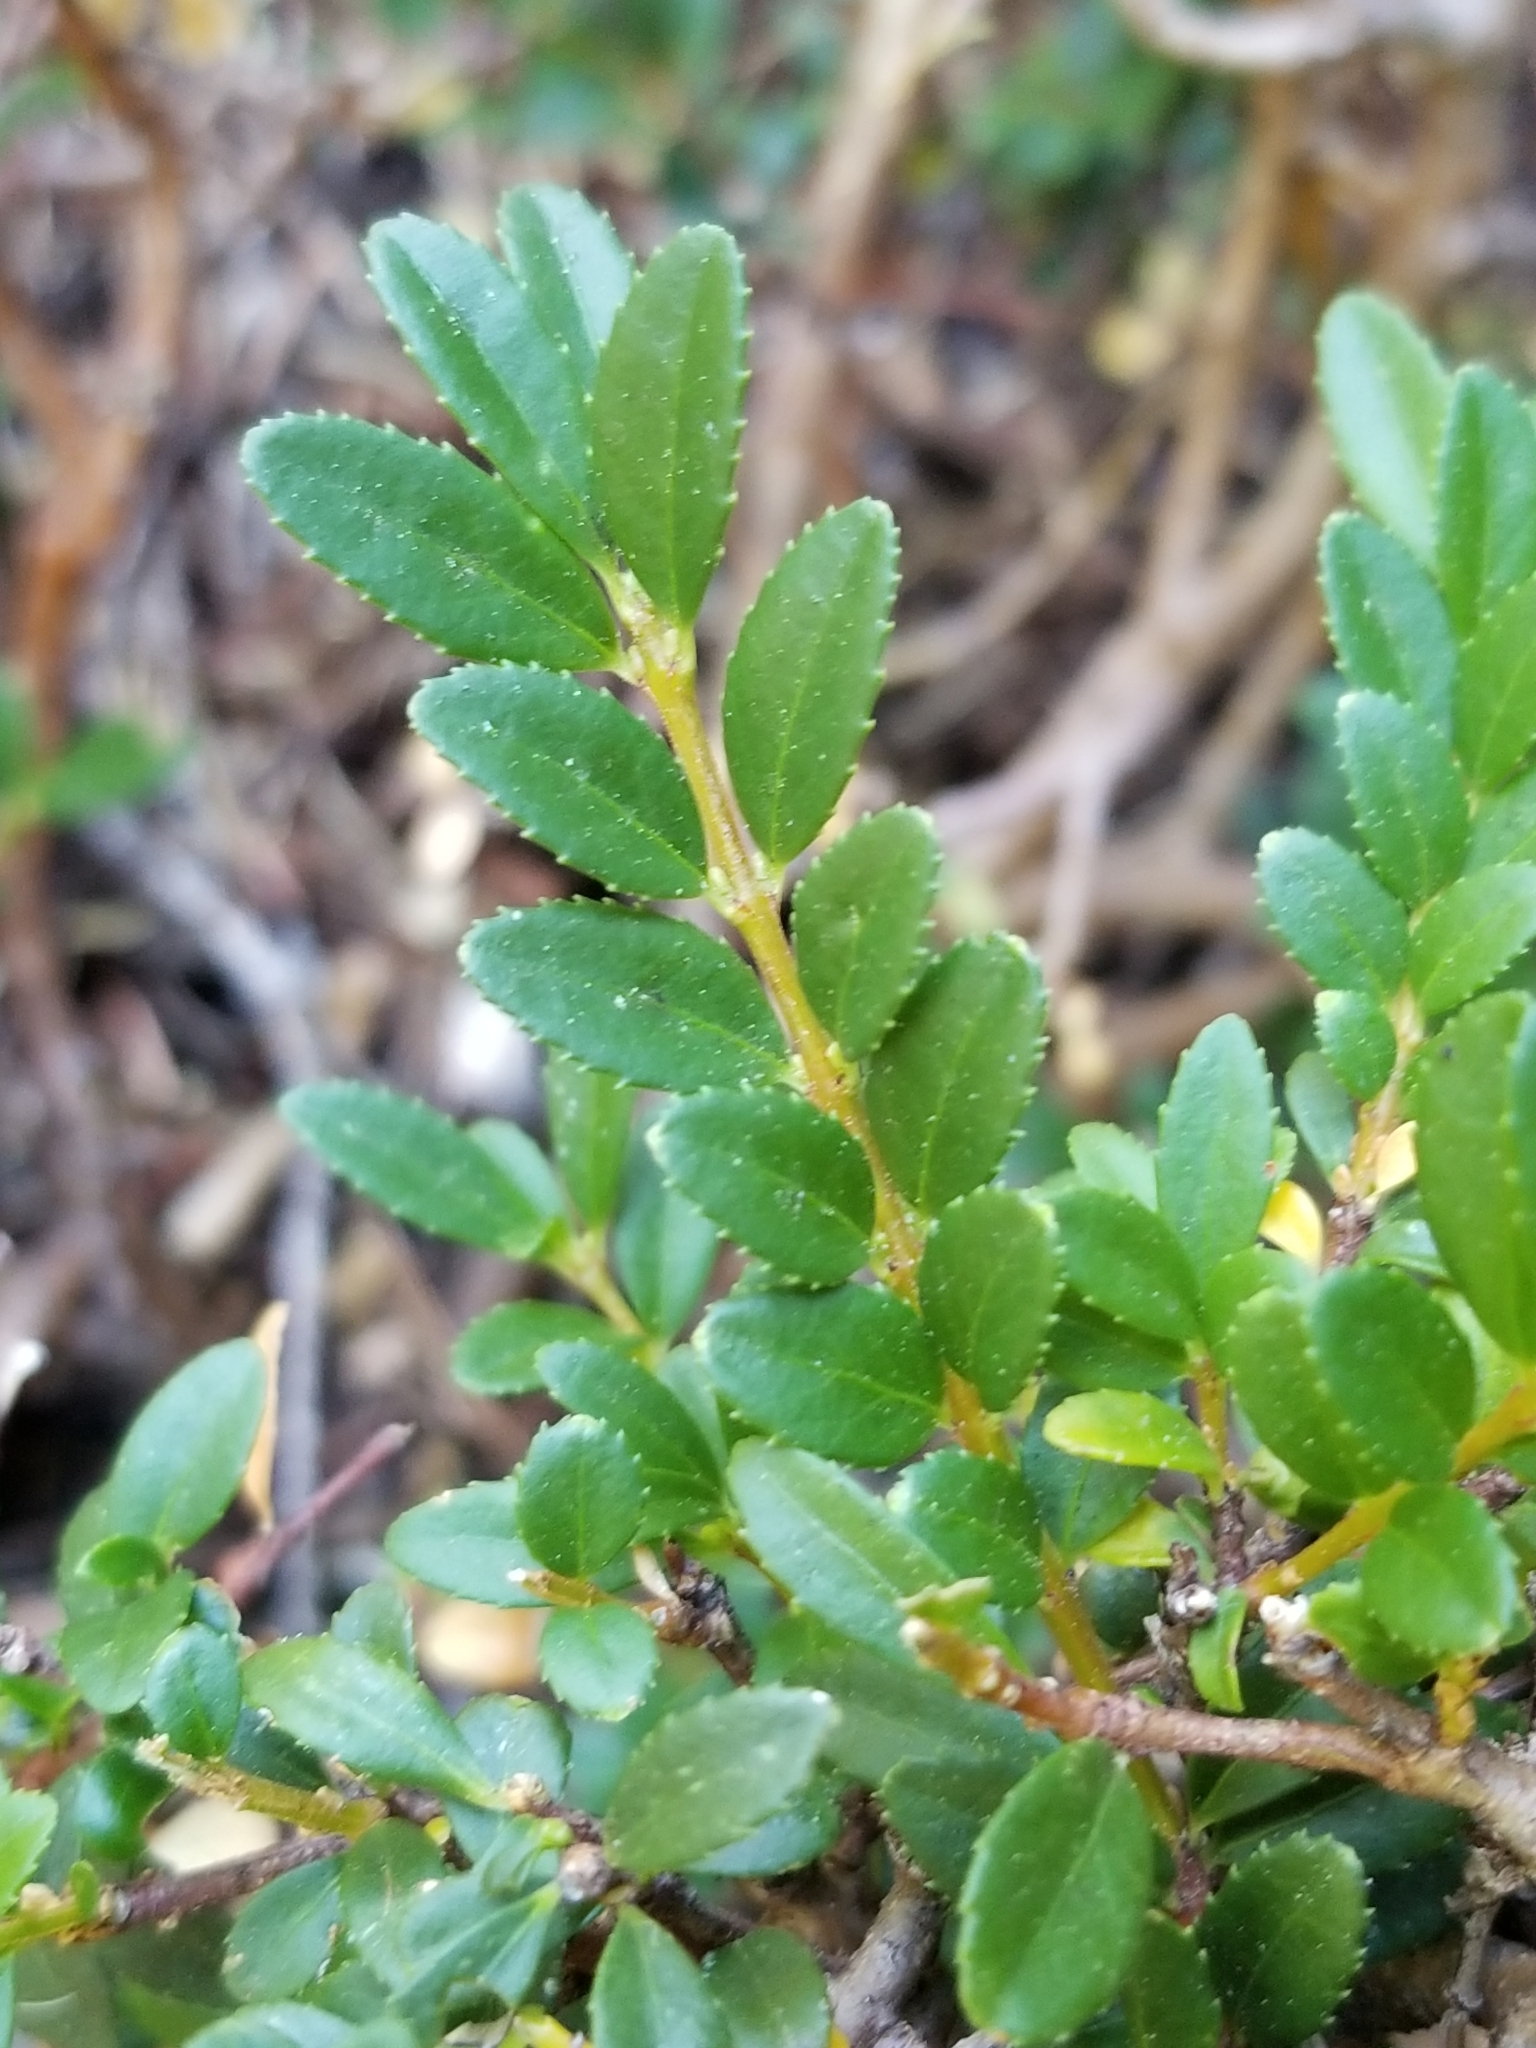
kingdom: Plantae
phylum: Tracheophyta
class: Magnoliopsida
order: Celastrales
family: Celastraceae
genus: Paxistima
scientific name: Paxistima myrsinites
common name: Mountain-lover
